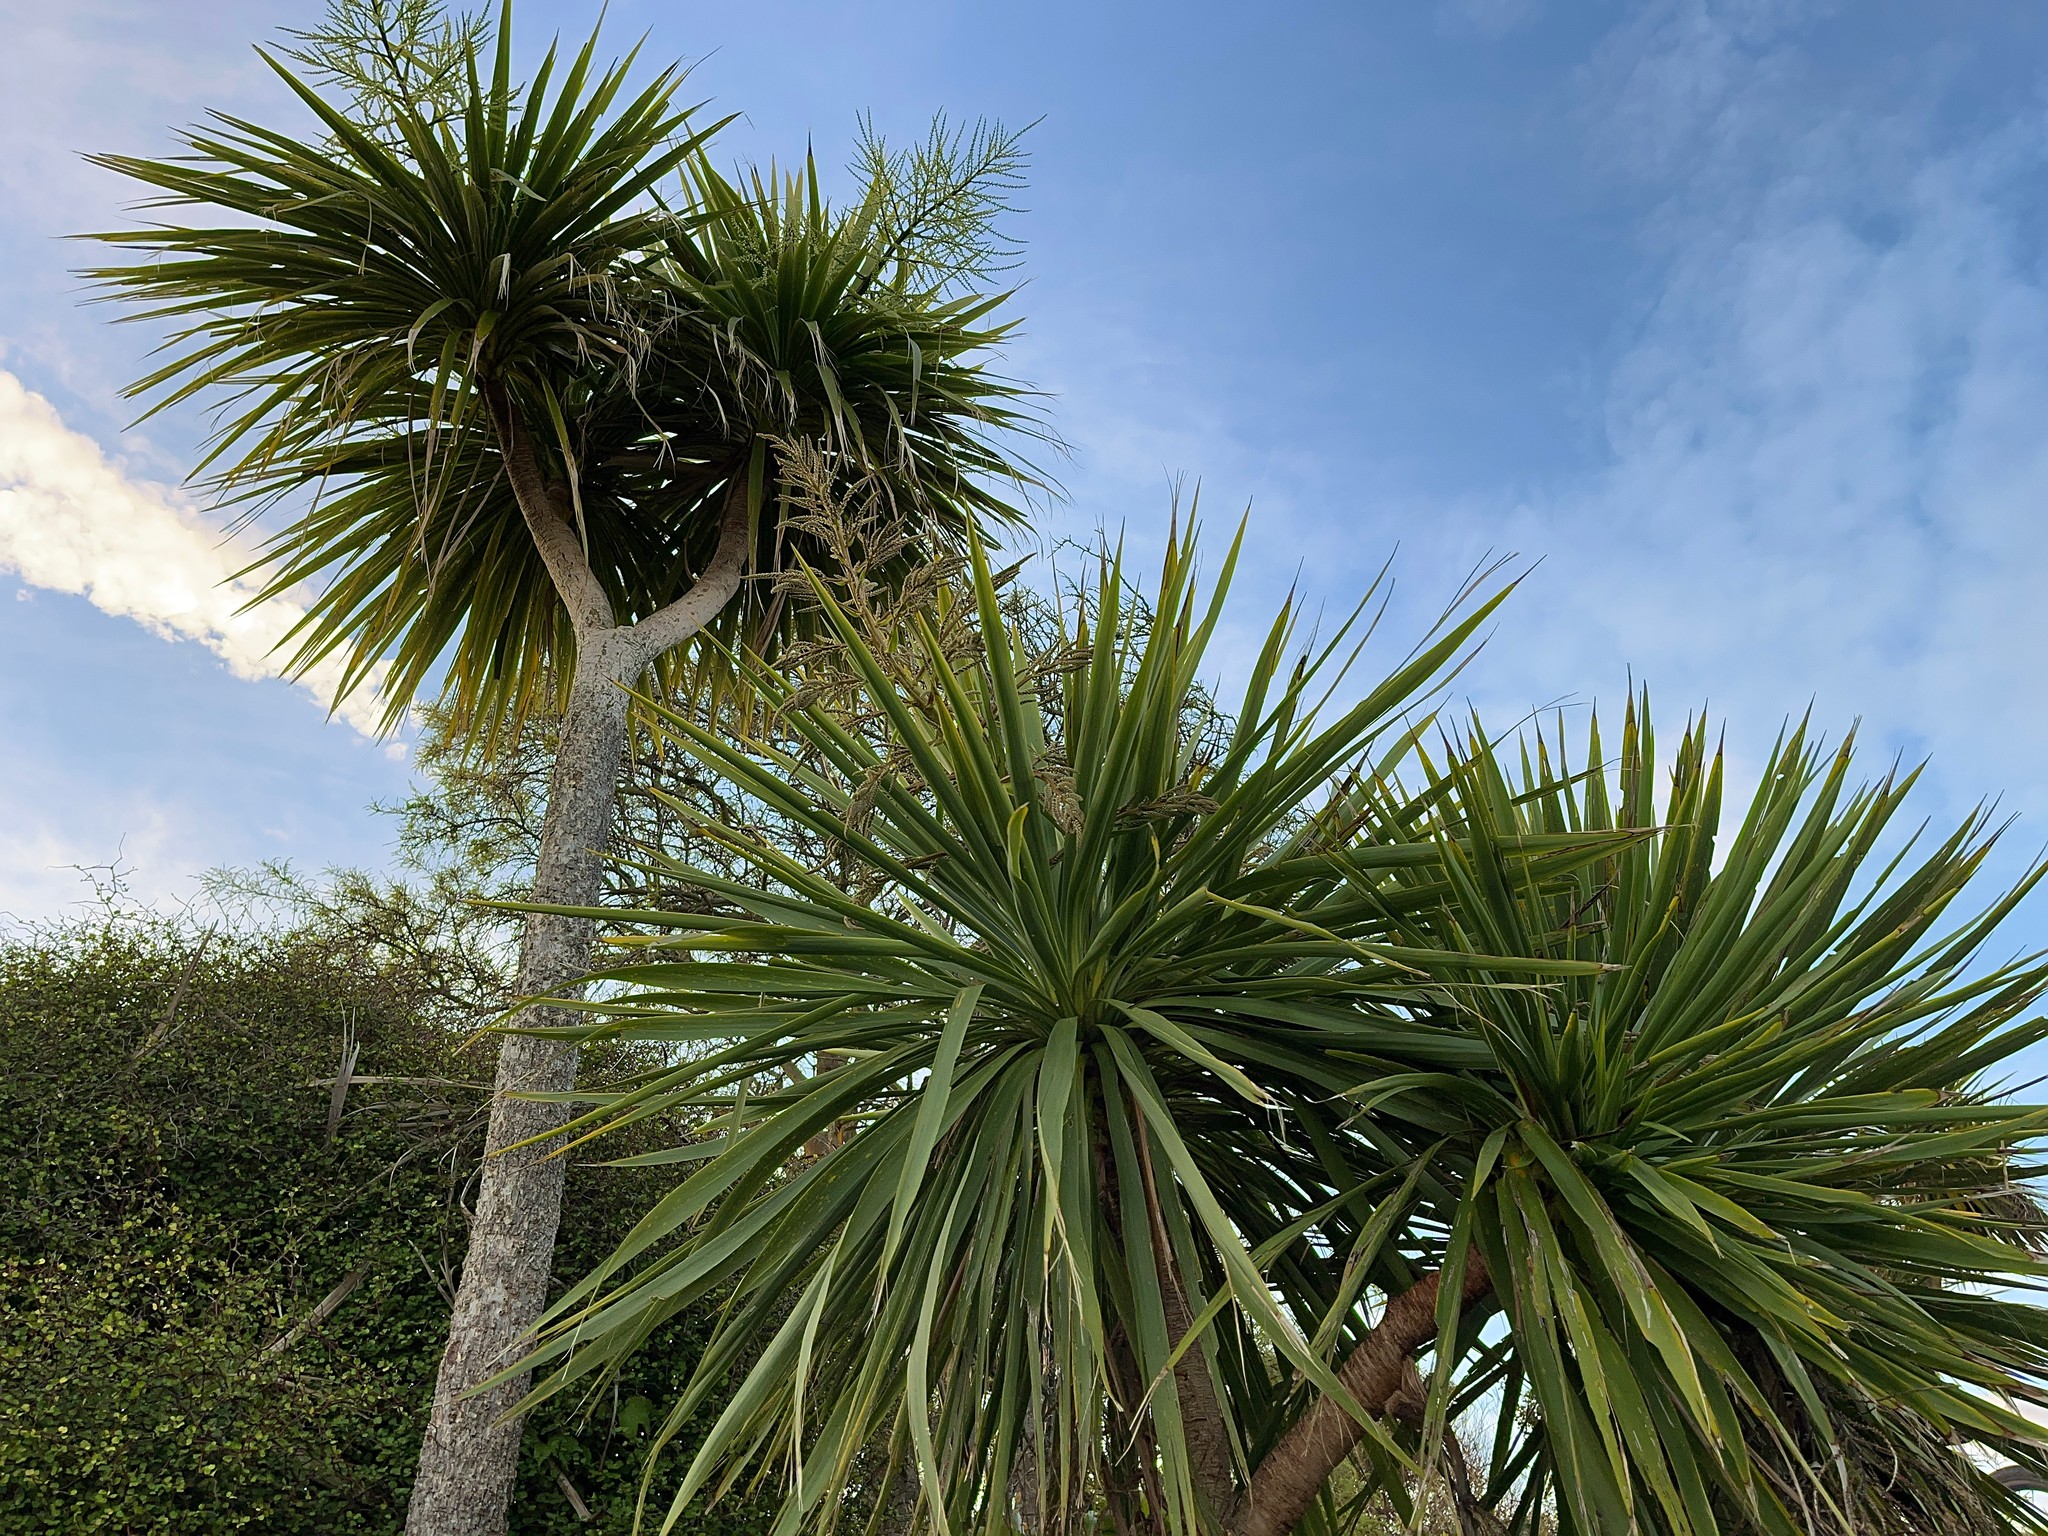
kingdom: Plantae
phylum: Tracheophyta
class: Liliopsida
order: Asparagales
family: Asparagaceae
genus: Cordyline
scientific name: Cordyline australis
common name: Cabbage-palm
